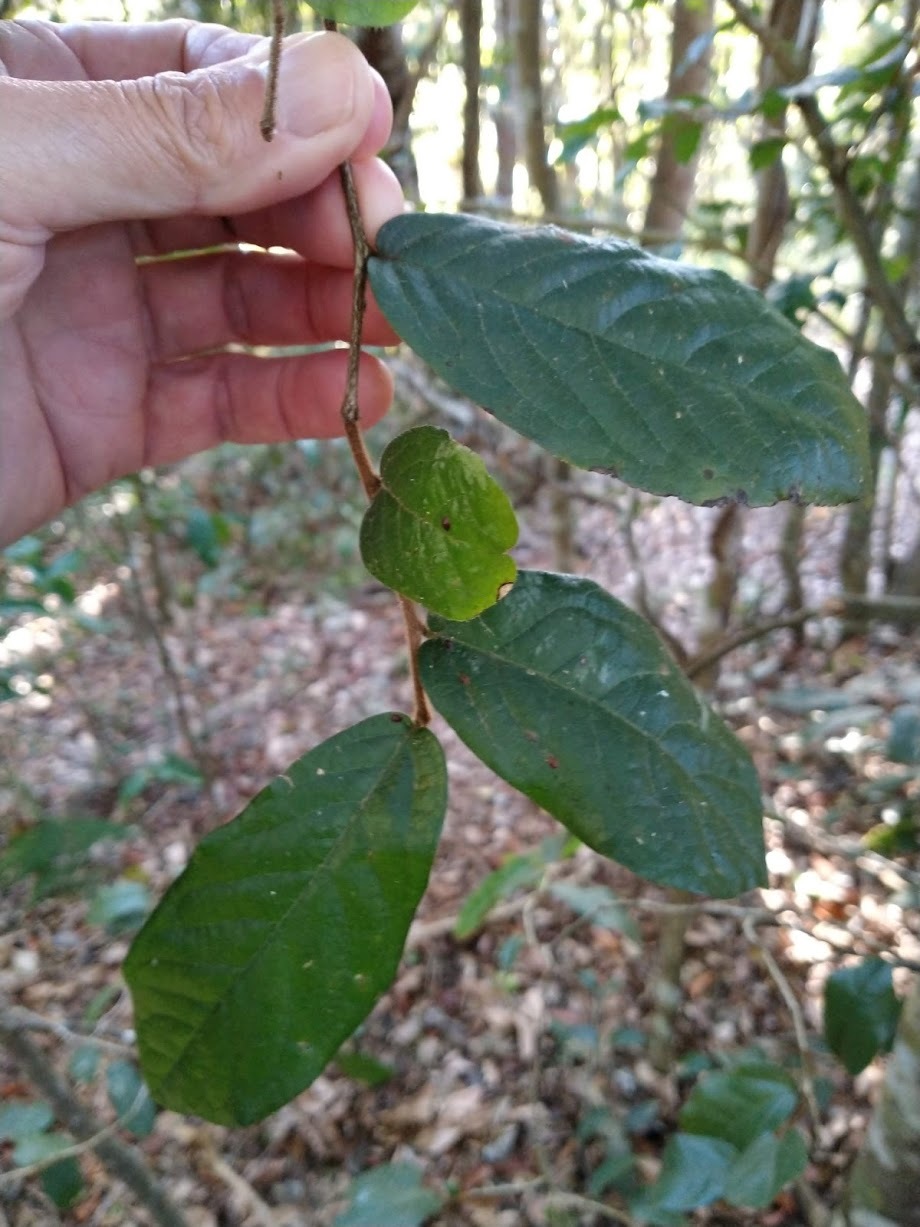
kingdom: Plantae
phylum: Tracheophyta
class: Magnoliopsida
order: Magnoliales
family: Annonaceae
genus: Fitzalania
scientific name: Fitzalania bidwilli
